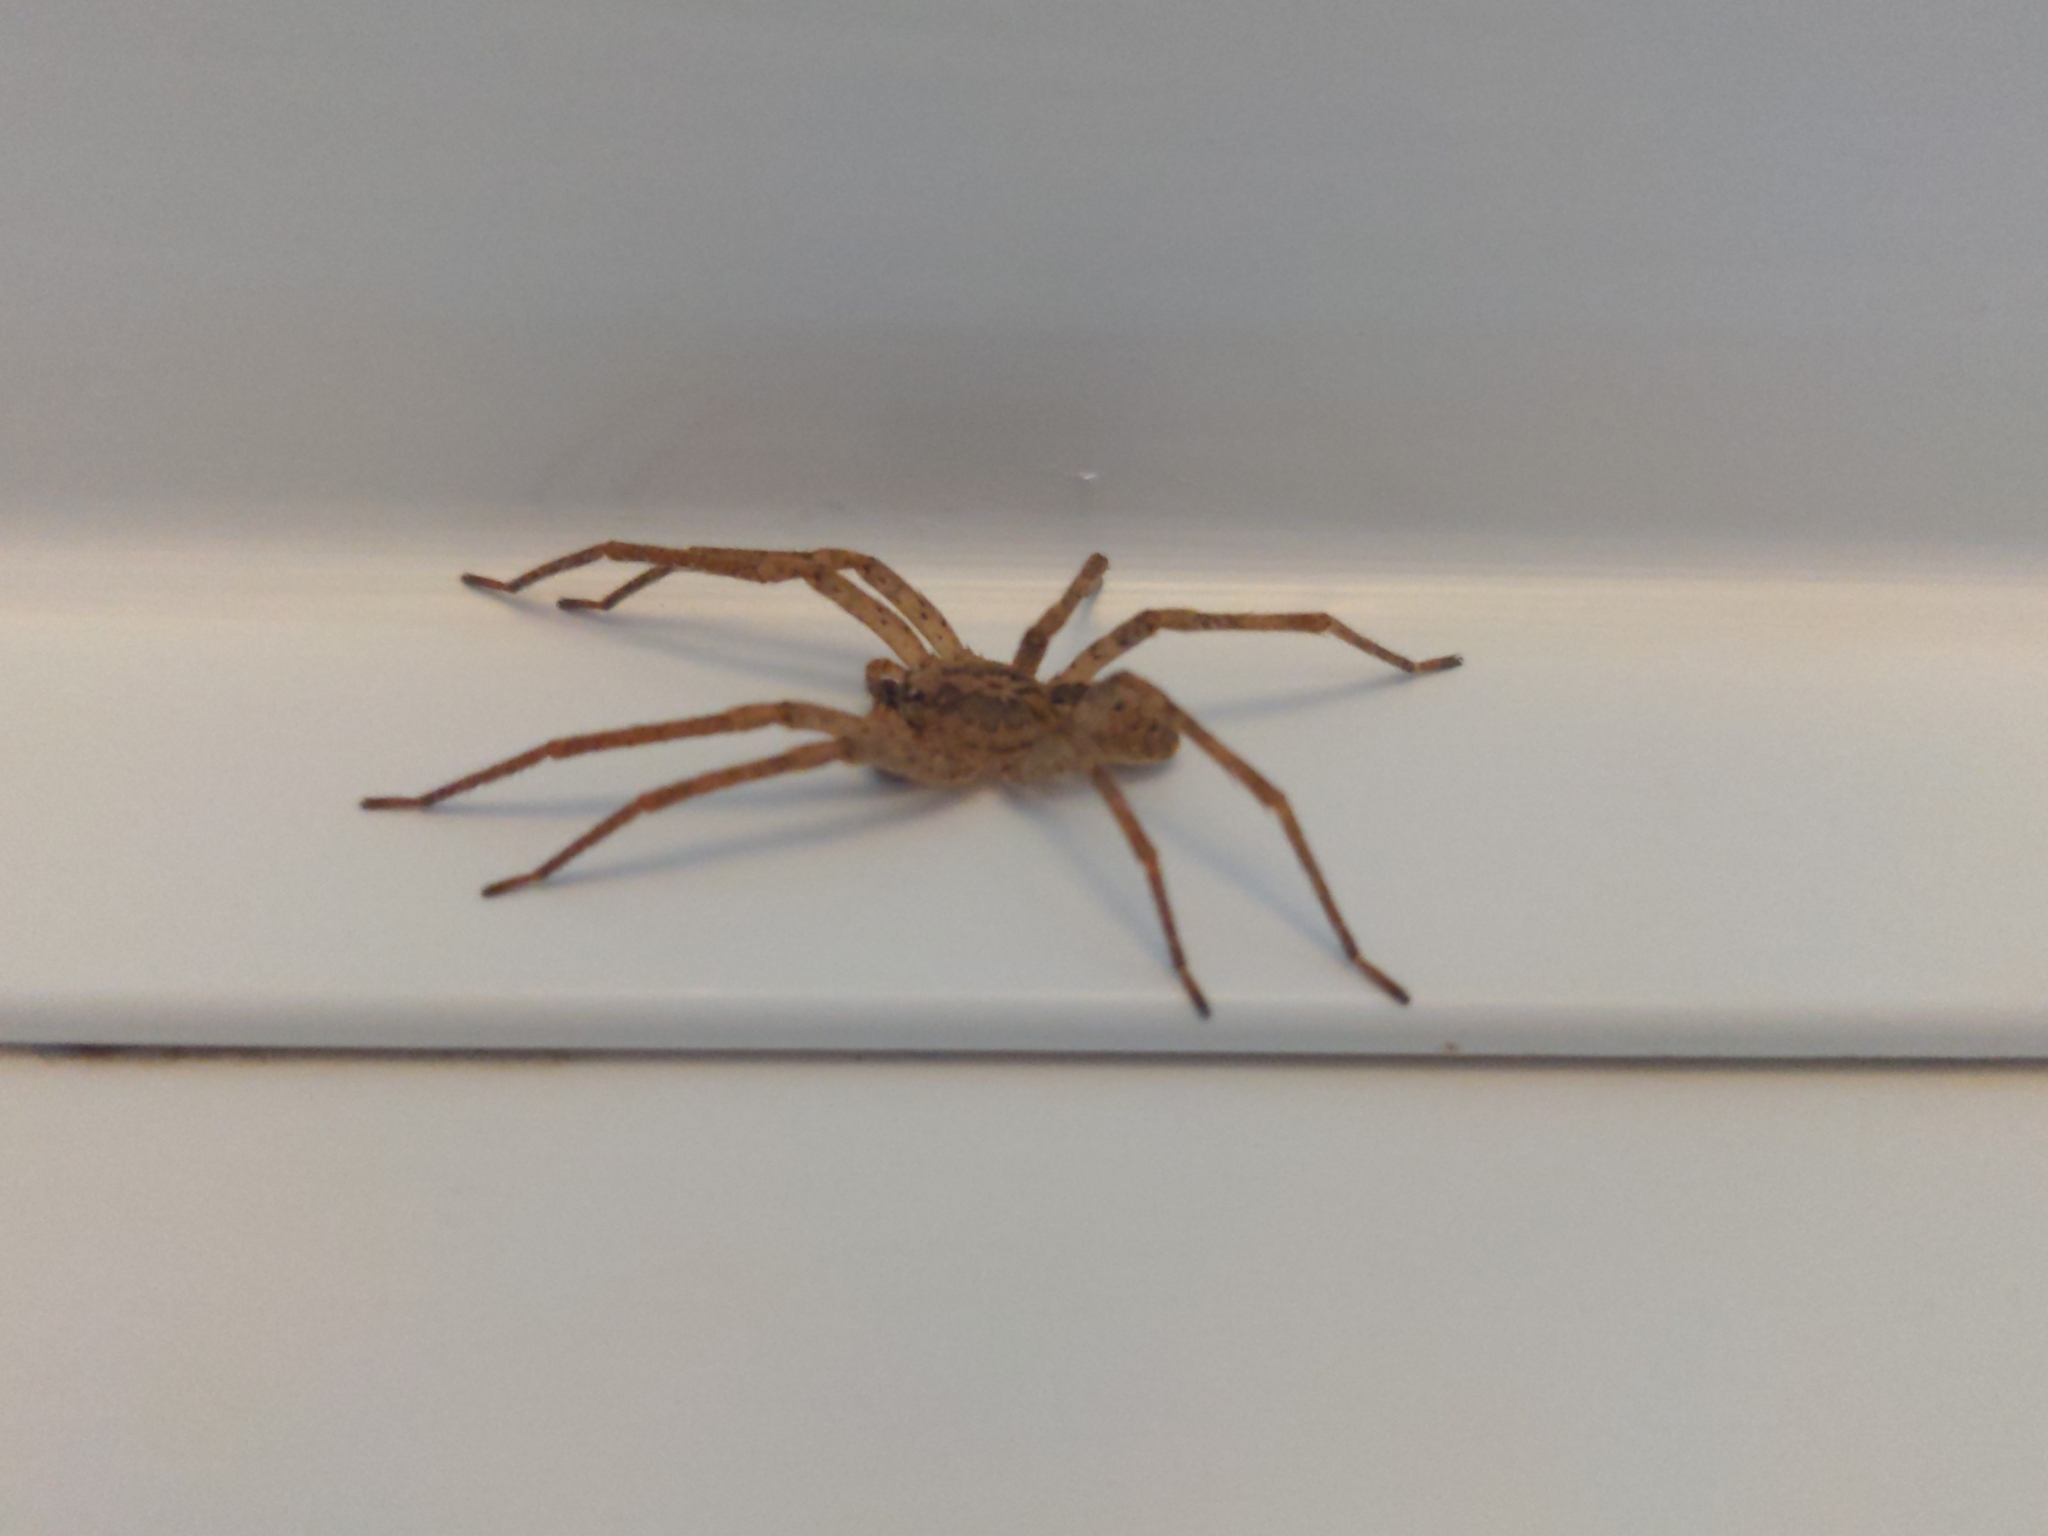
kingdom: Animalia
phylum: Arthropoda
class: Arachnida
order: Araneae
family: Zoropsidae
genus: Zoropsis
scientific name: Zoropsis spinimana
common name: Zoropsid spider
